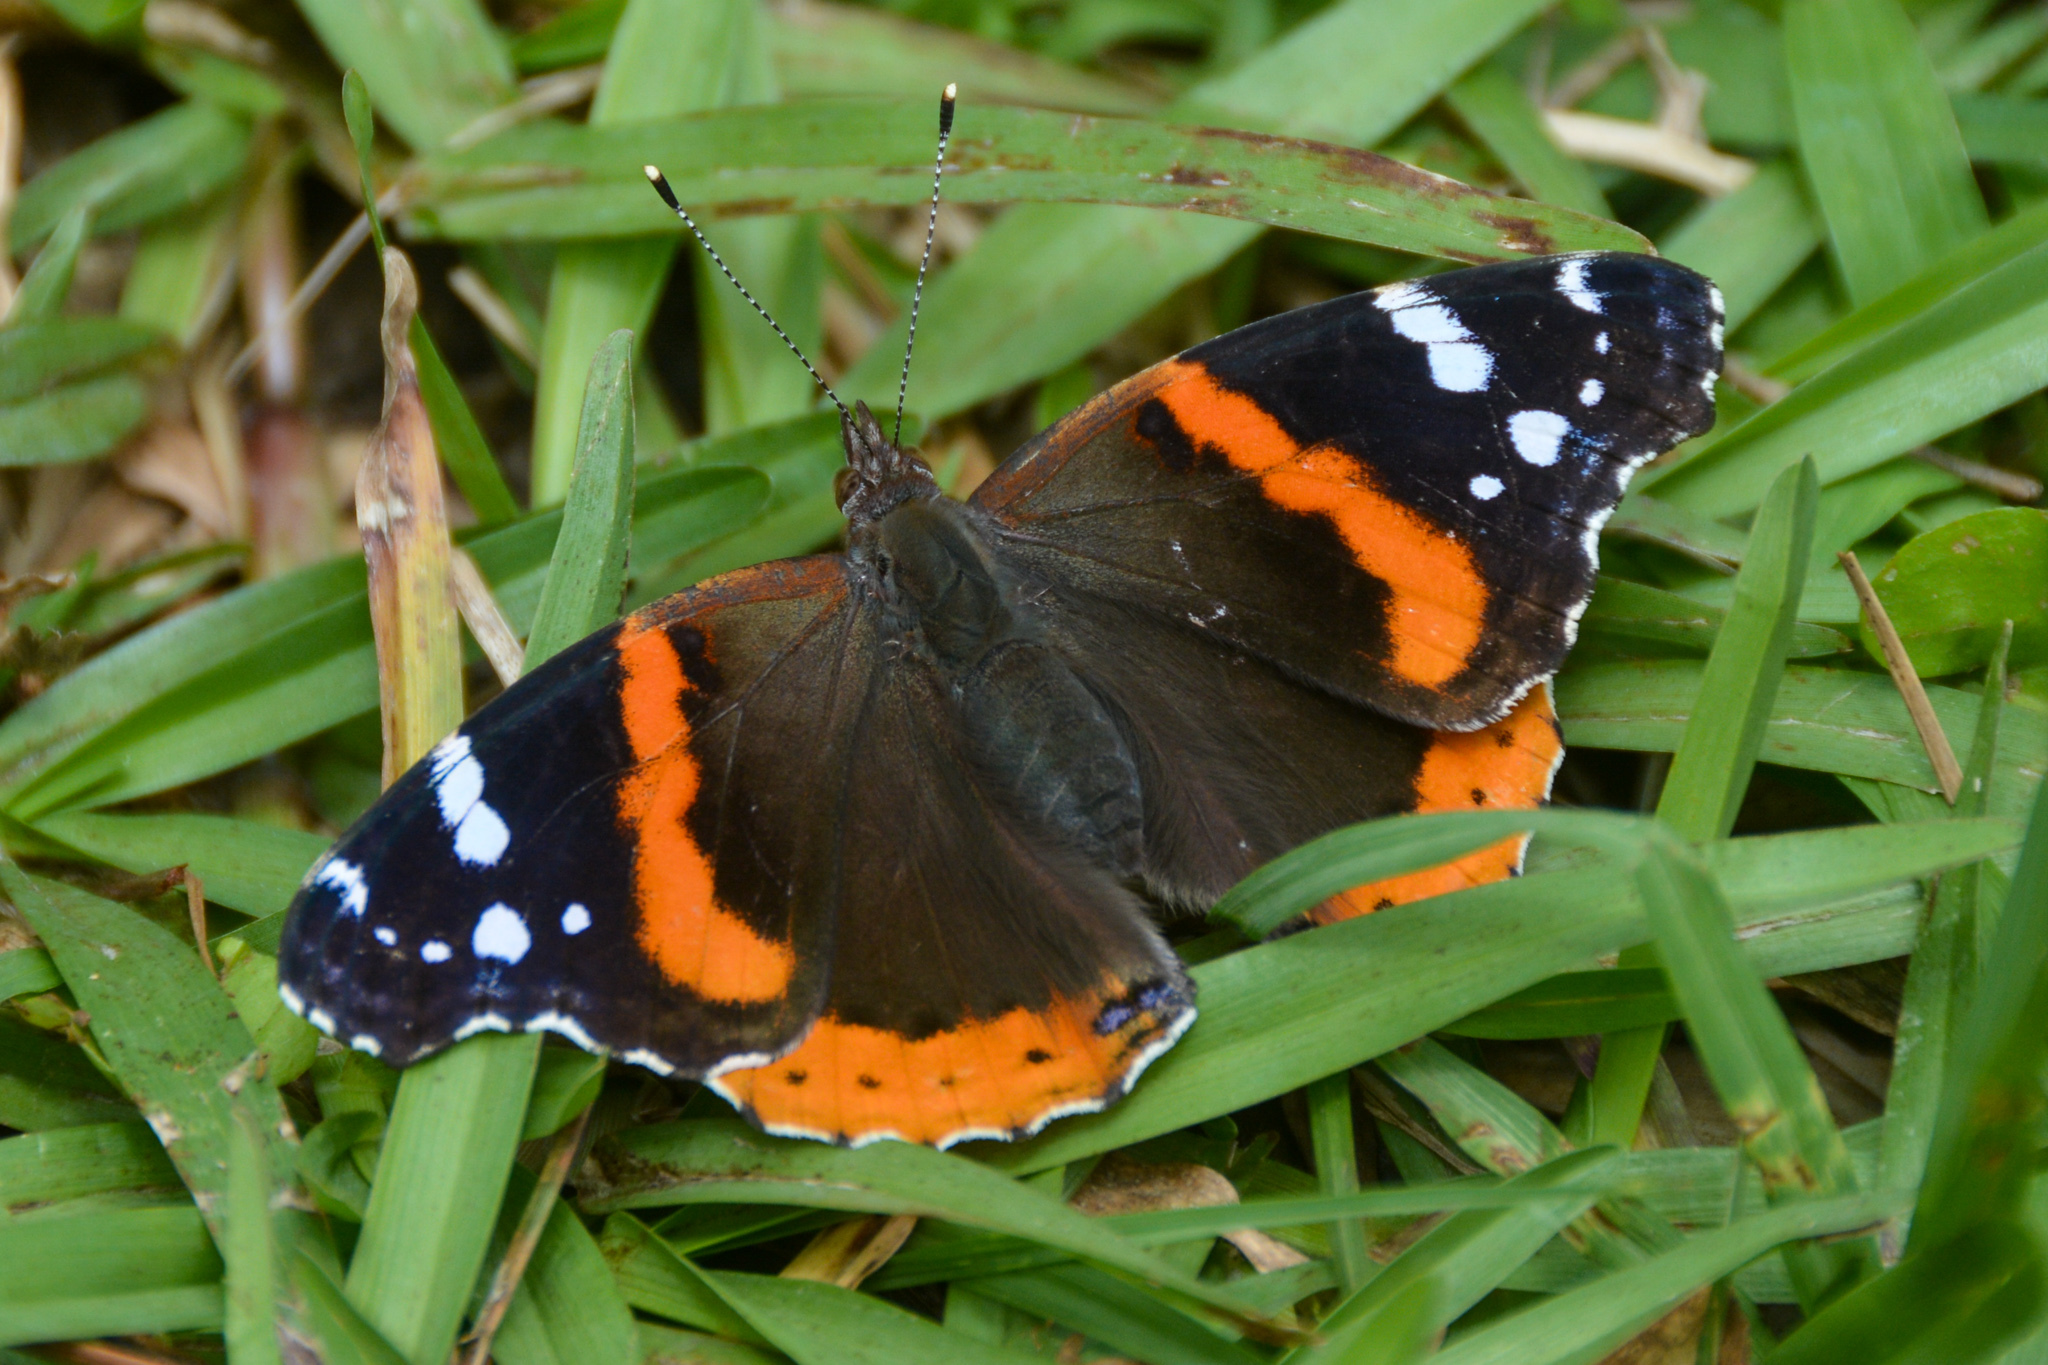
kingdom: Animalia
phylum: Arthropoda
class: Insecta
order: Lepidoptera
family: Nymphalidae
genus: Vanessa
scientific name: Vanessa atalanta
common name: Red admiral
